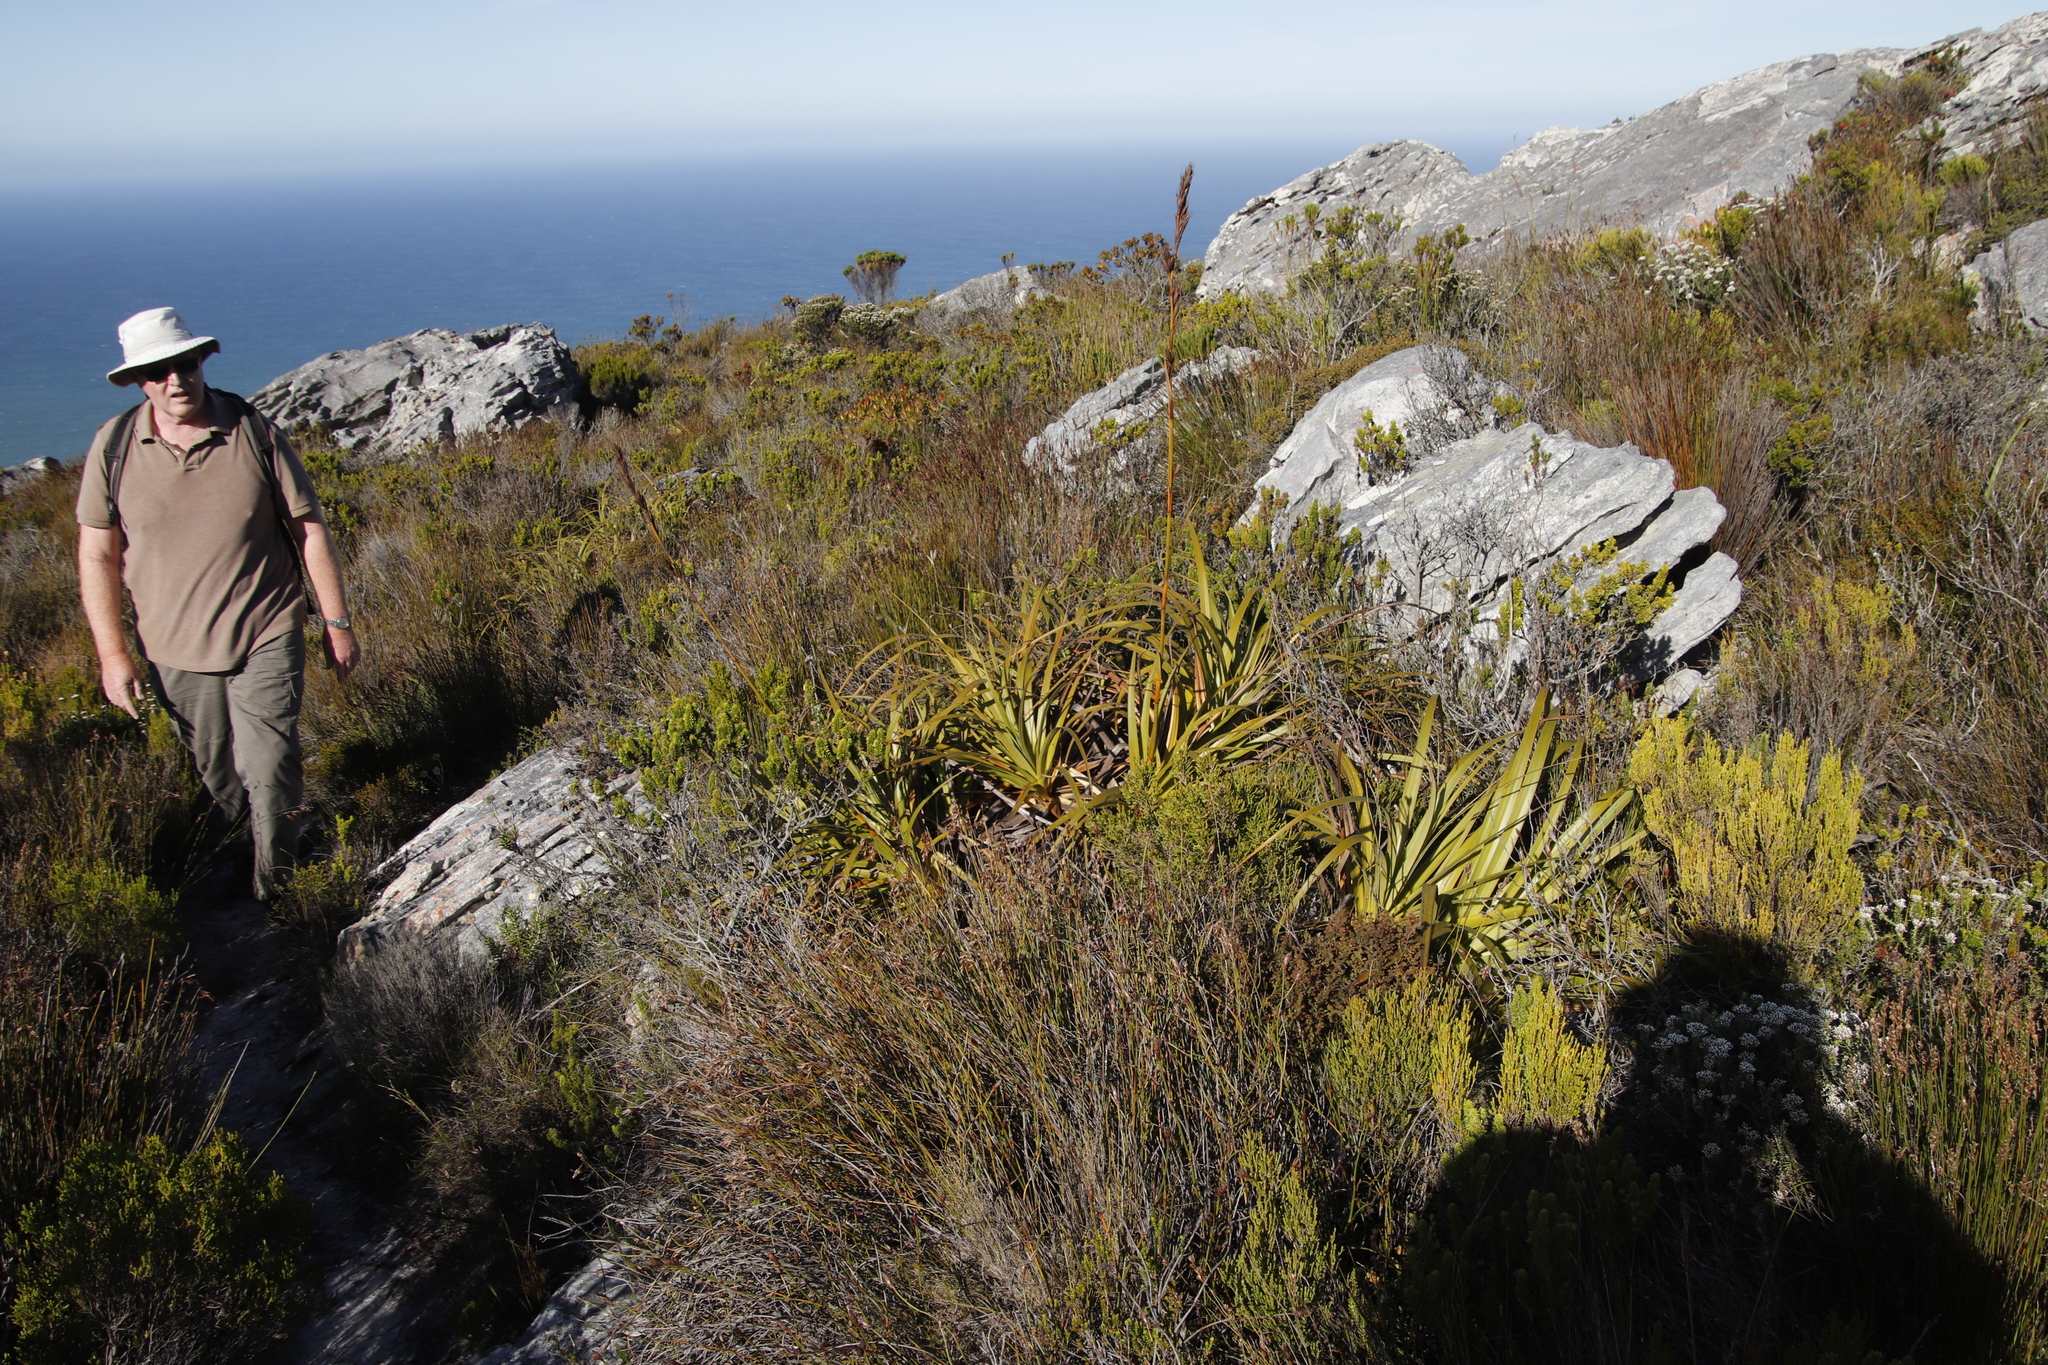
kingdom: Plantae
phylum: Tracheophyta
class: Liliopsida
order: Poales
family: Cyperaceae
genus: Tetraria
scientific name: Tetraria thermalis
